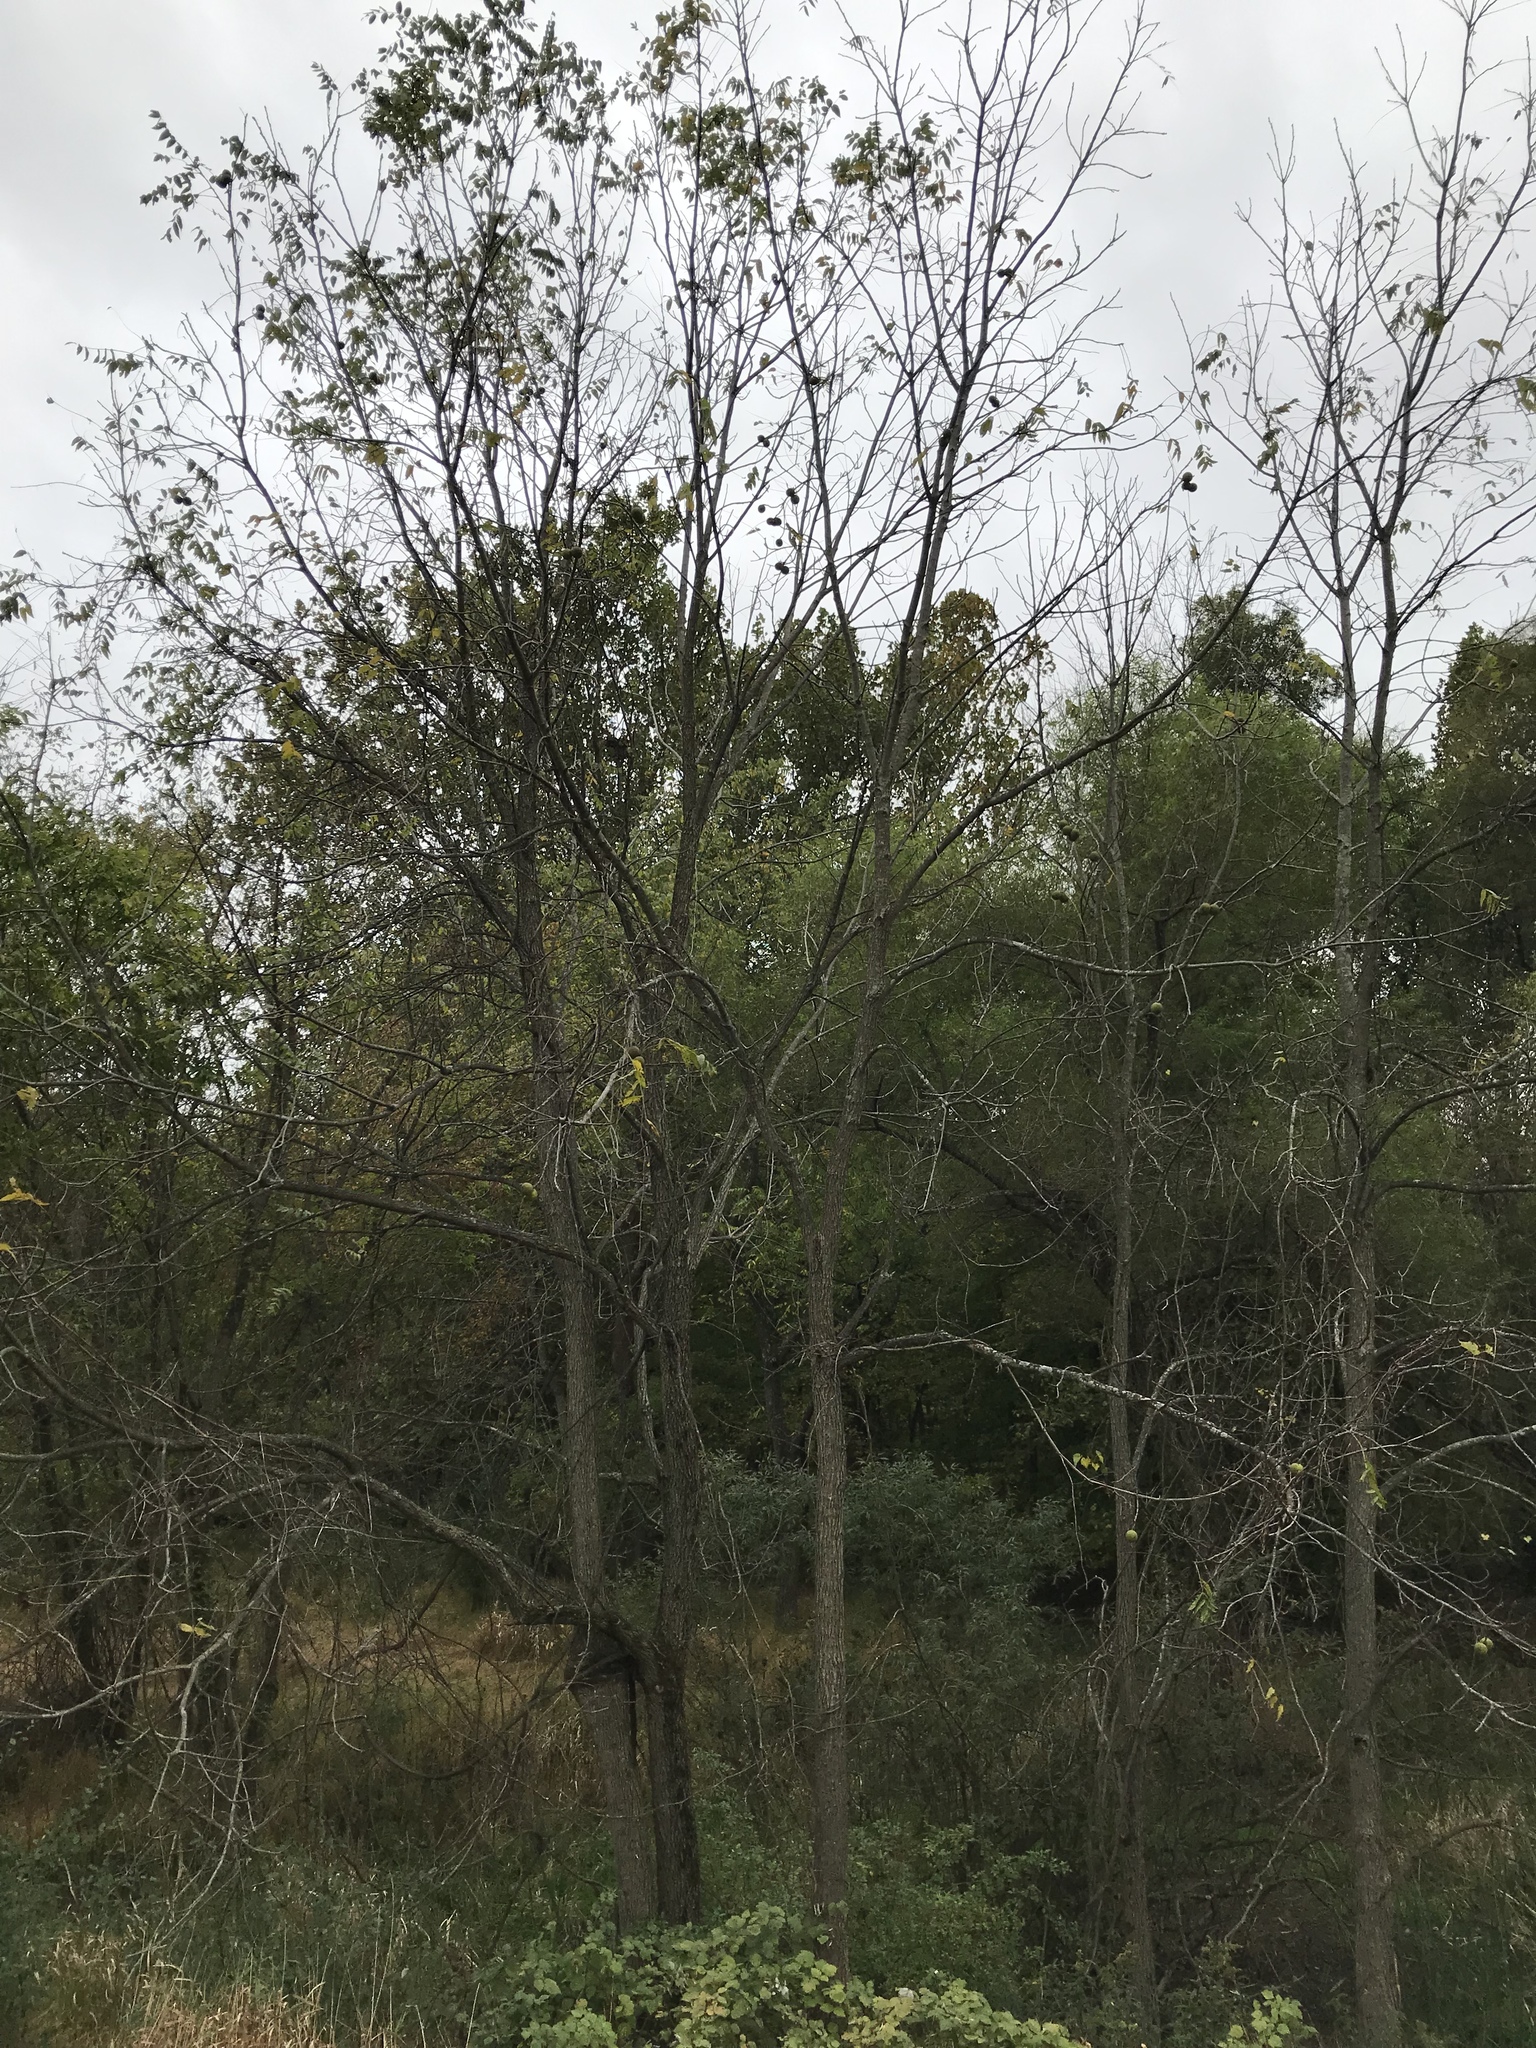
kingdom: Plantae
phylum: Tracheophyta
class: Magnoliopsida
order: Fagales
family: Juglandaceae
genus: Juglans
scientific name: Juglans nigra
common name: Black walnut
